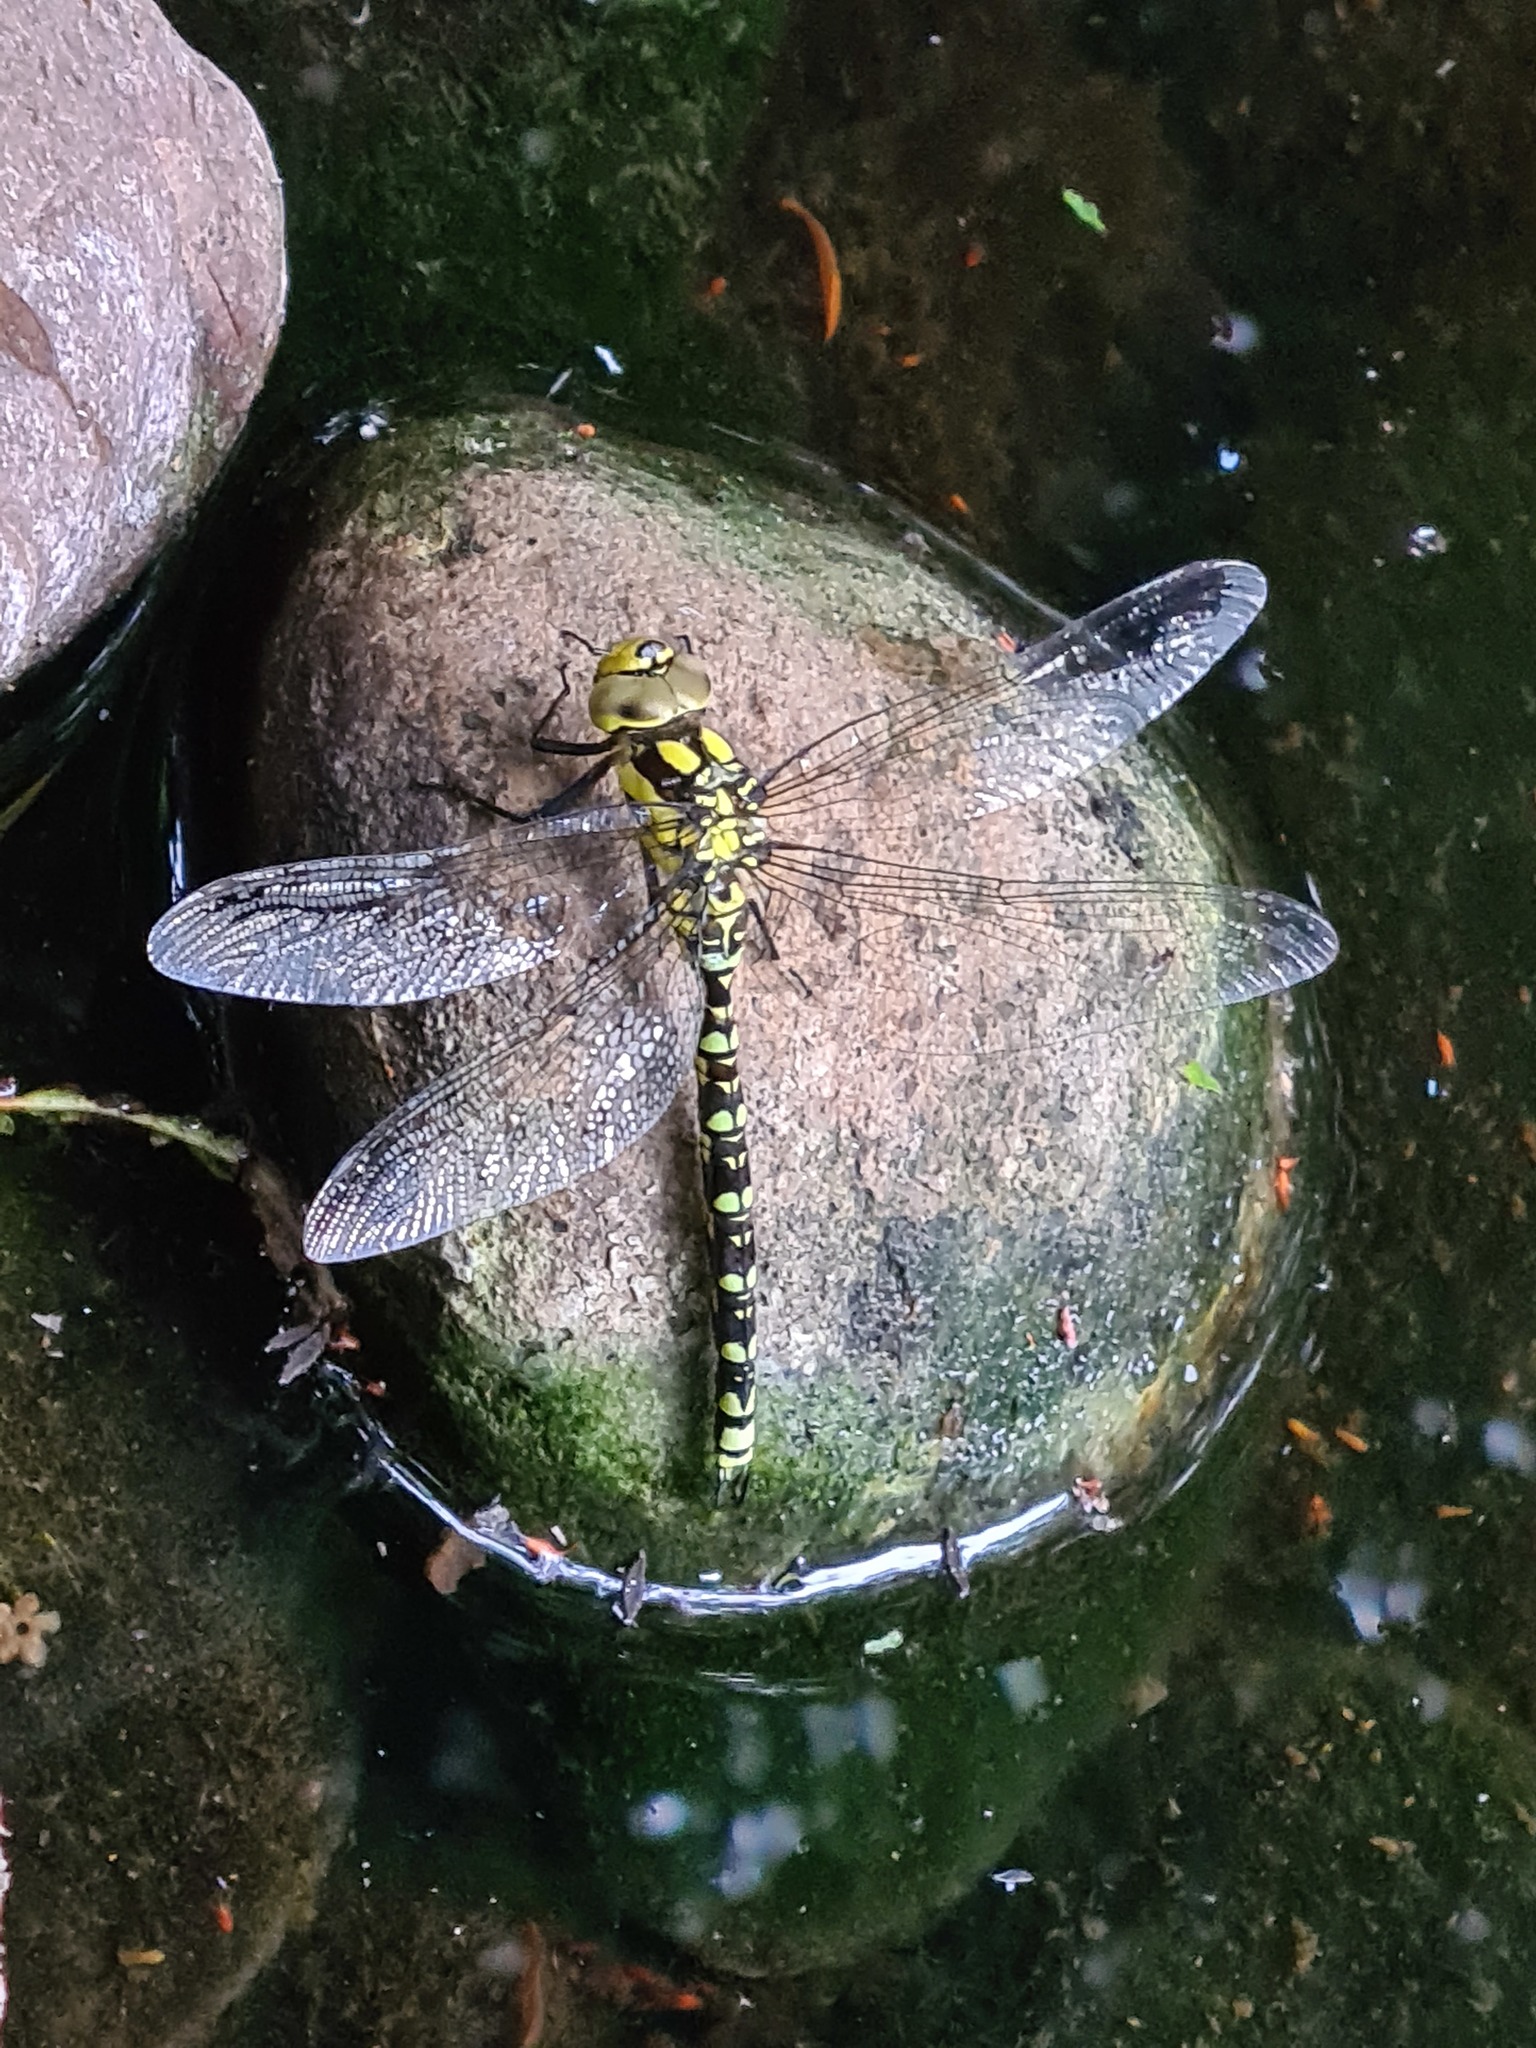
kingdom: Animalia
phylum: Arthropoda
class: Insecta
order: Odonata
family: Aeshnidae
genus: Aeshna
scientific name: Aeshna cyanea
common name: Southern hawker
